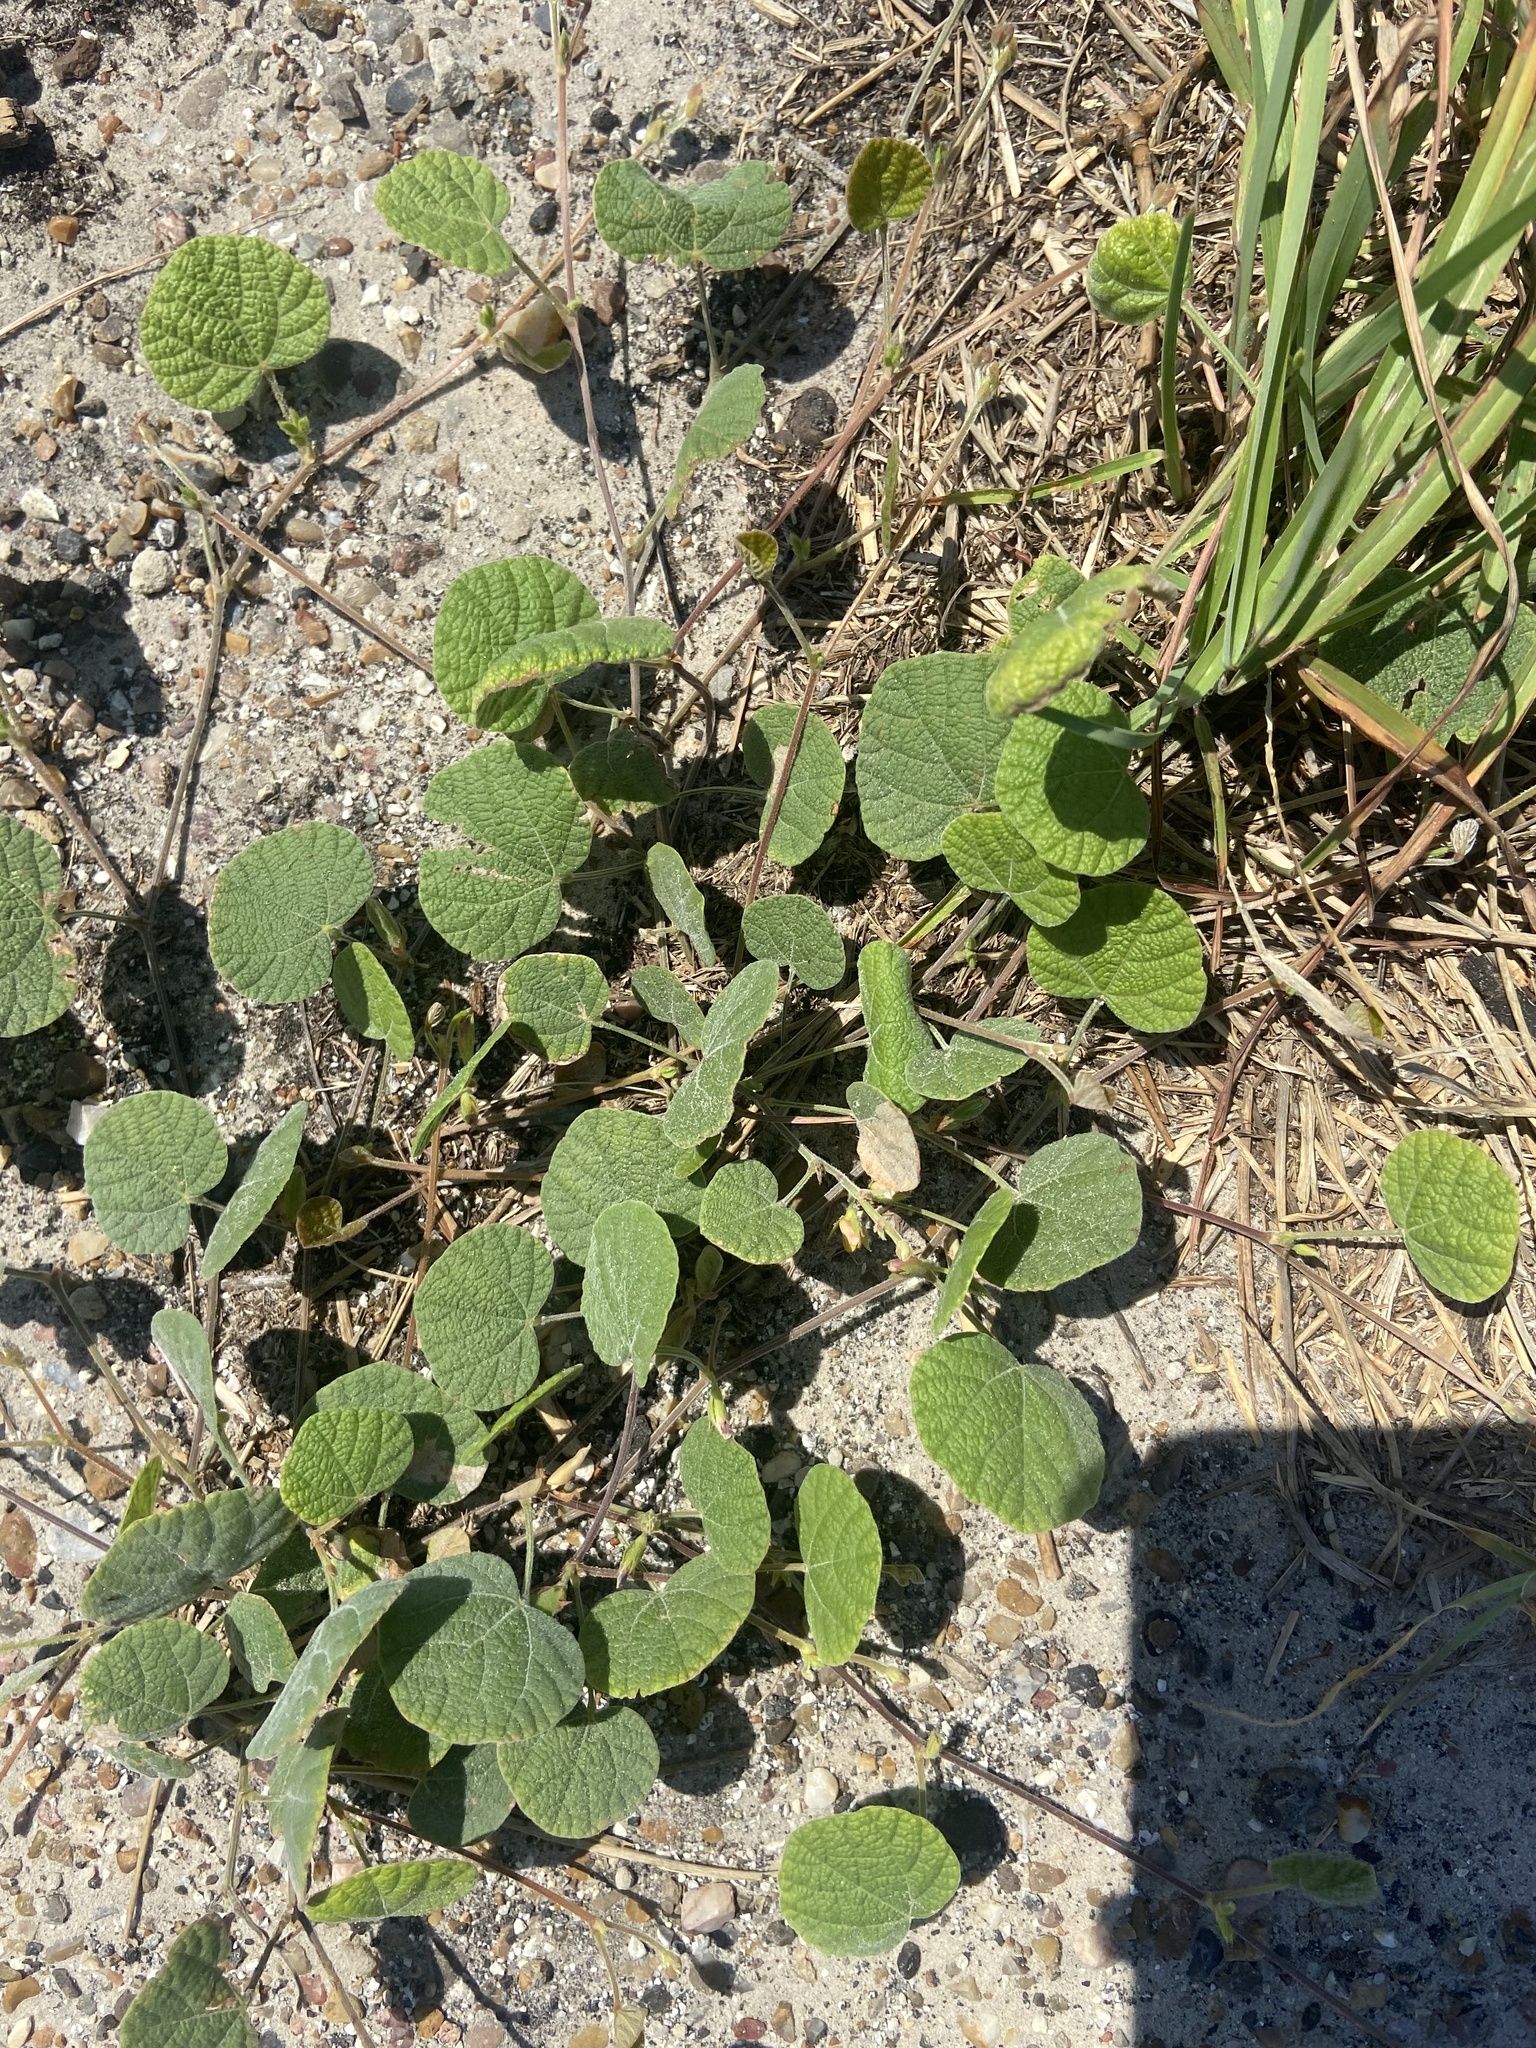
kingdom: Plantae
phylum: Tracheophyta
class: Magnoliopsida
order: Fabales
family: Fabaceae
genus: Rhynchosia
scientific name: Rhynchosia americana
